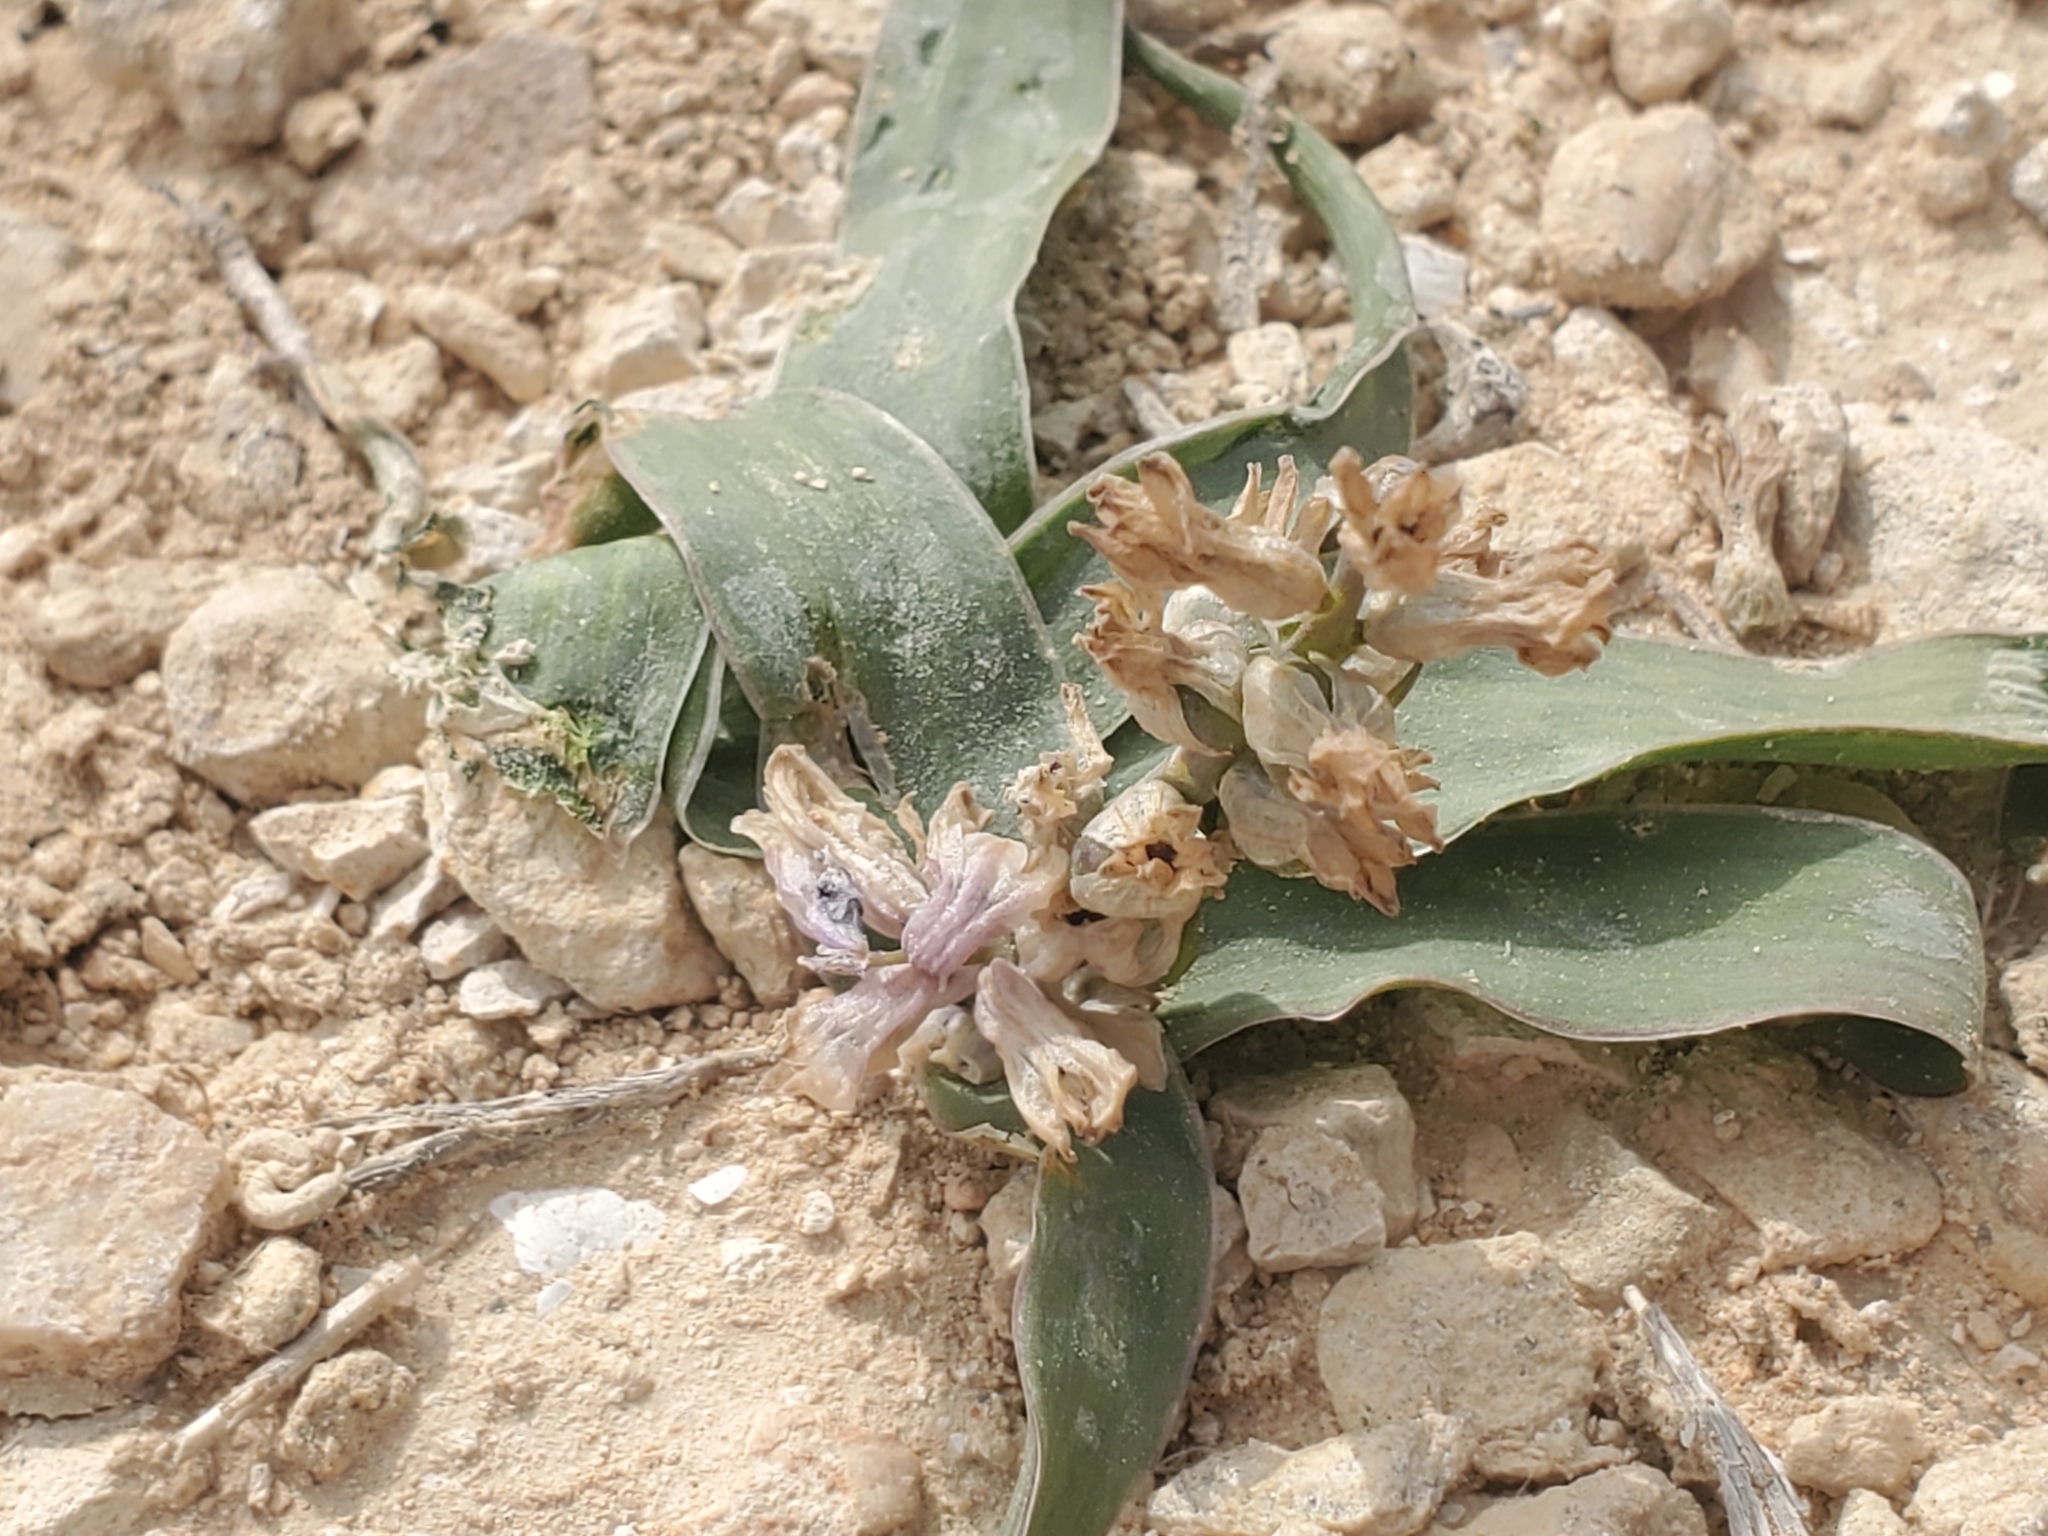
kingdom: Plantae
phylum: Tracheophyta
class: Liliopsida
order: Asparagales
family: Asparagaceae
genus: Bellevalia
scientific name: Bellevalia desertorum
